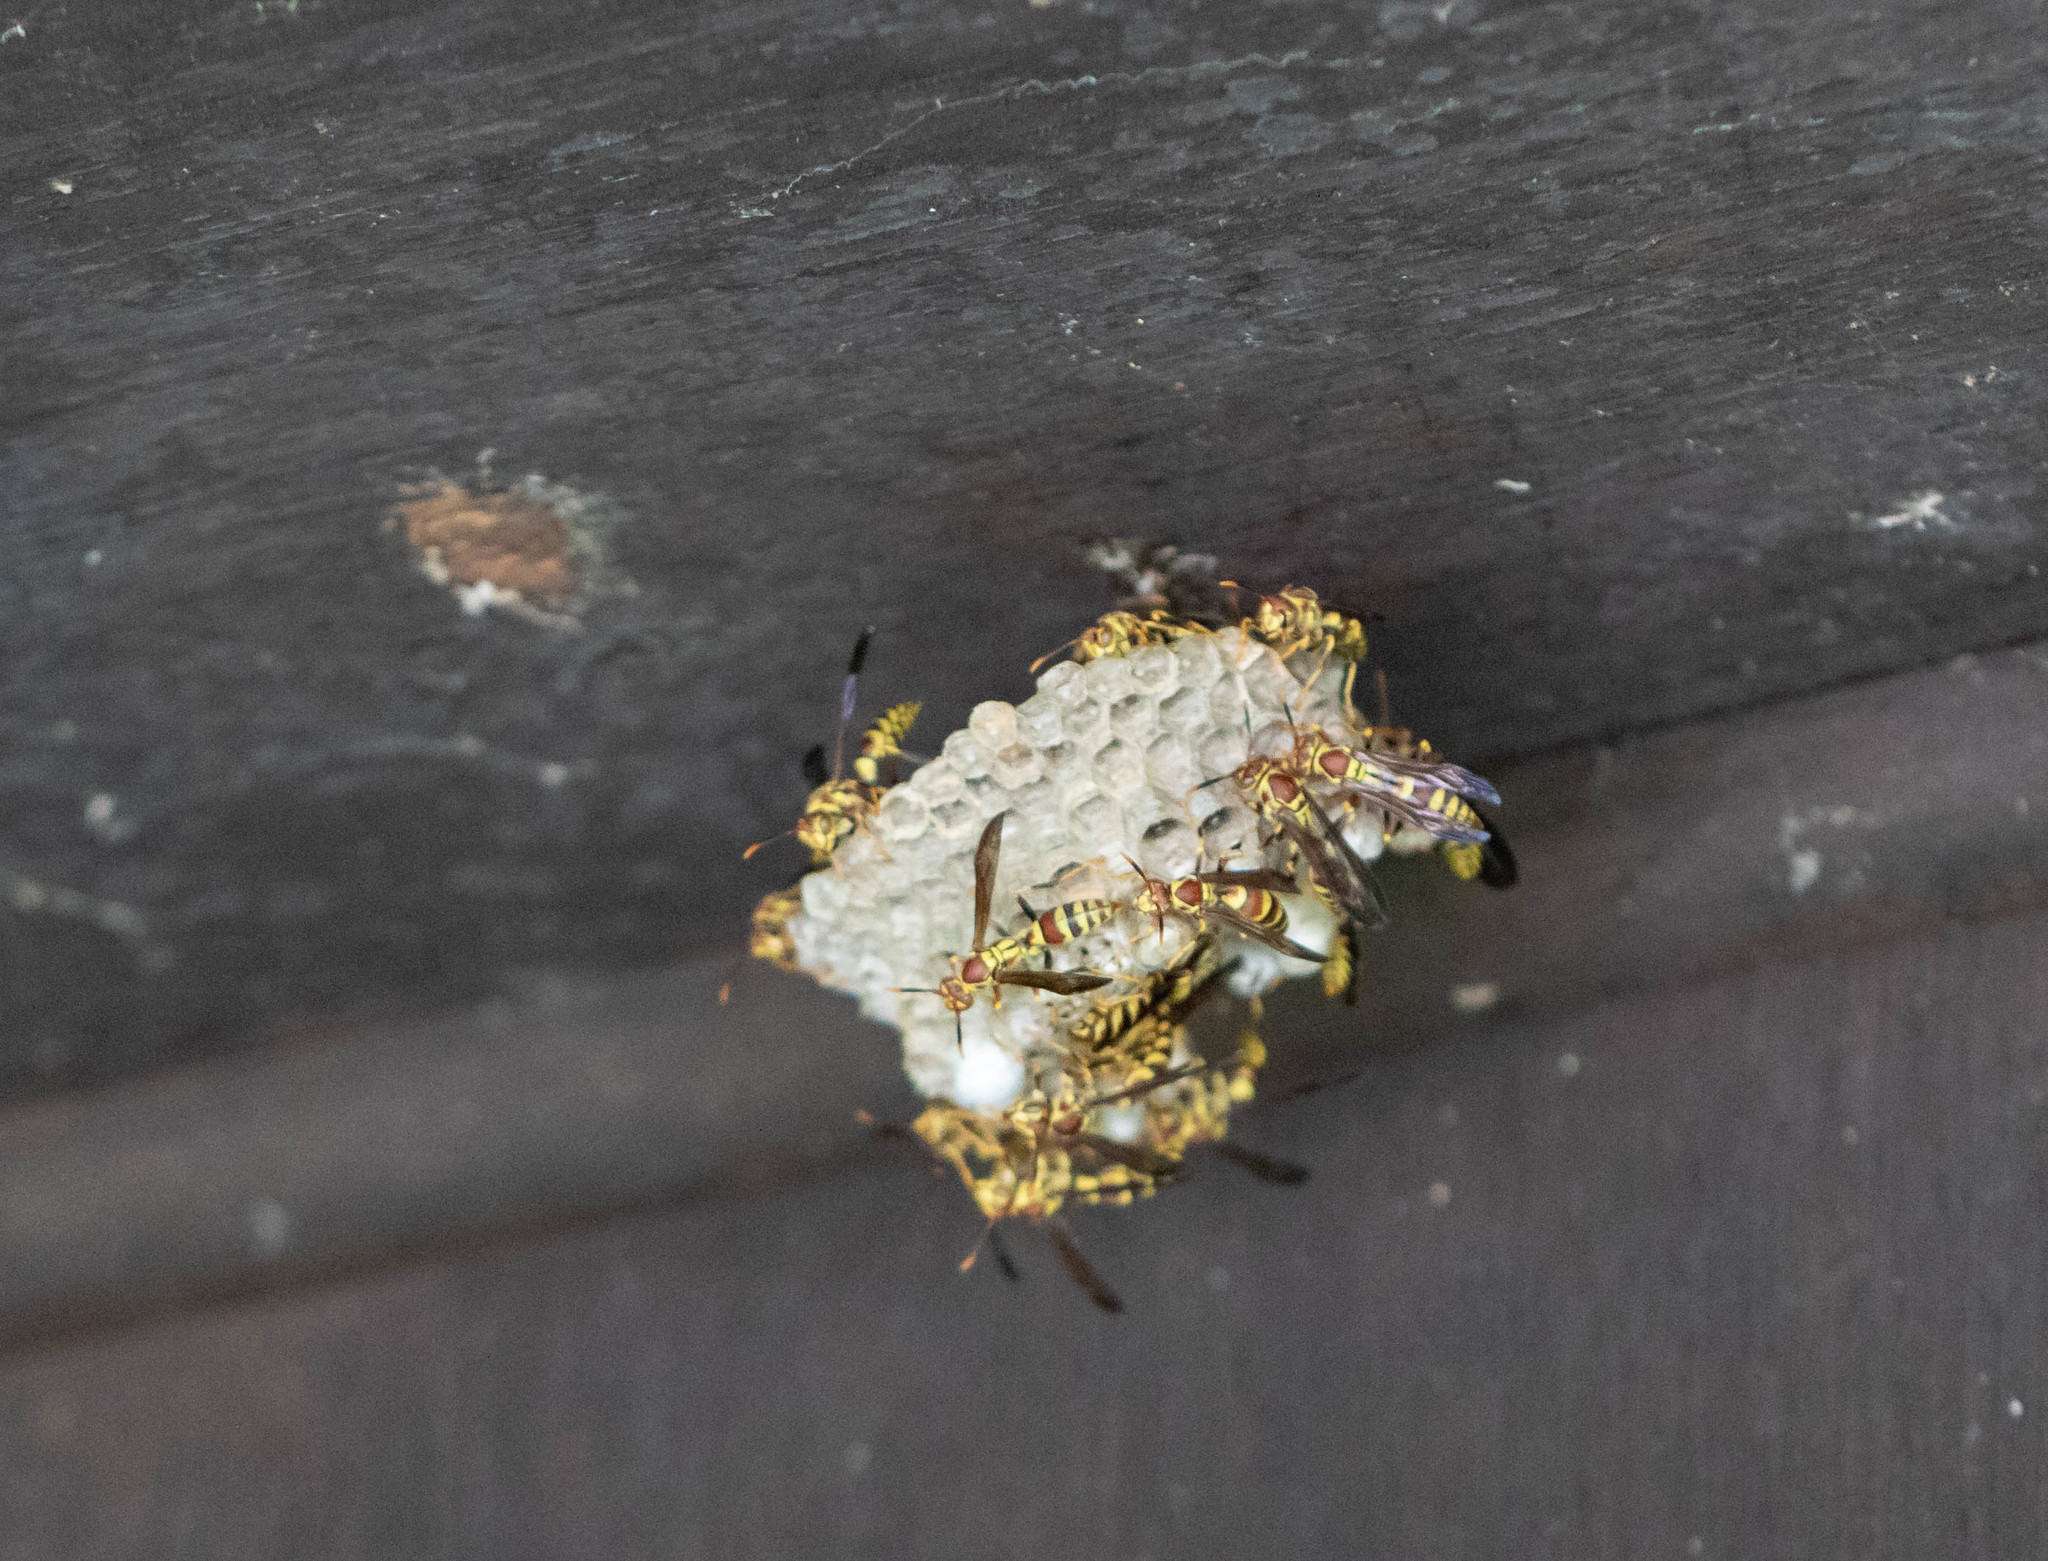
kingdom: Animalia
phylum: Arthropoda
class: Insecta
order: Hymenoptera
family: Eumenidae
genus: Polistes
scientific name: Polistes exclamans
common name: Paper wasp
